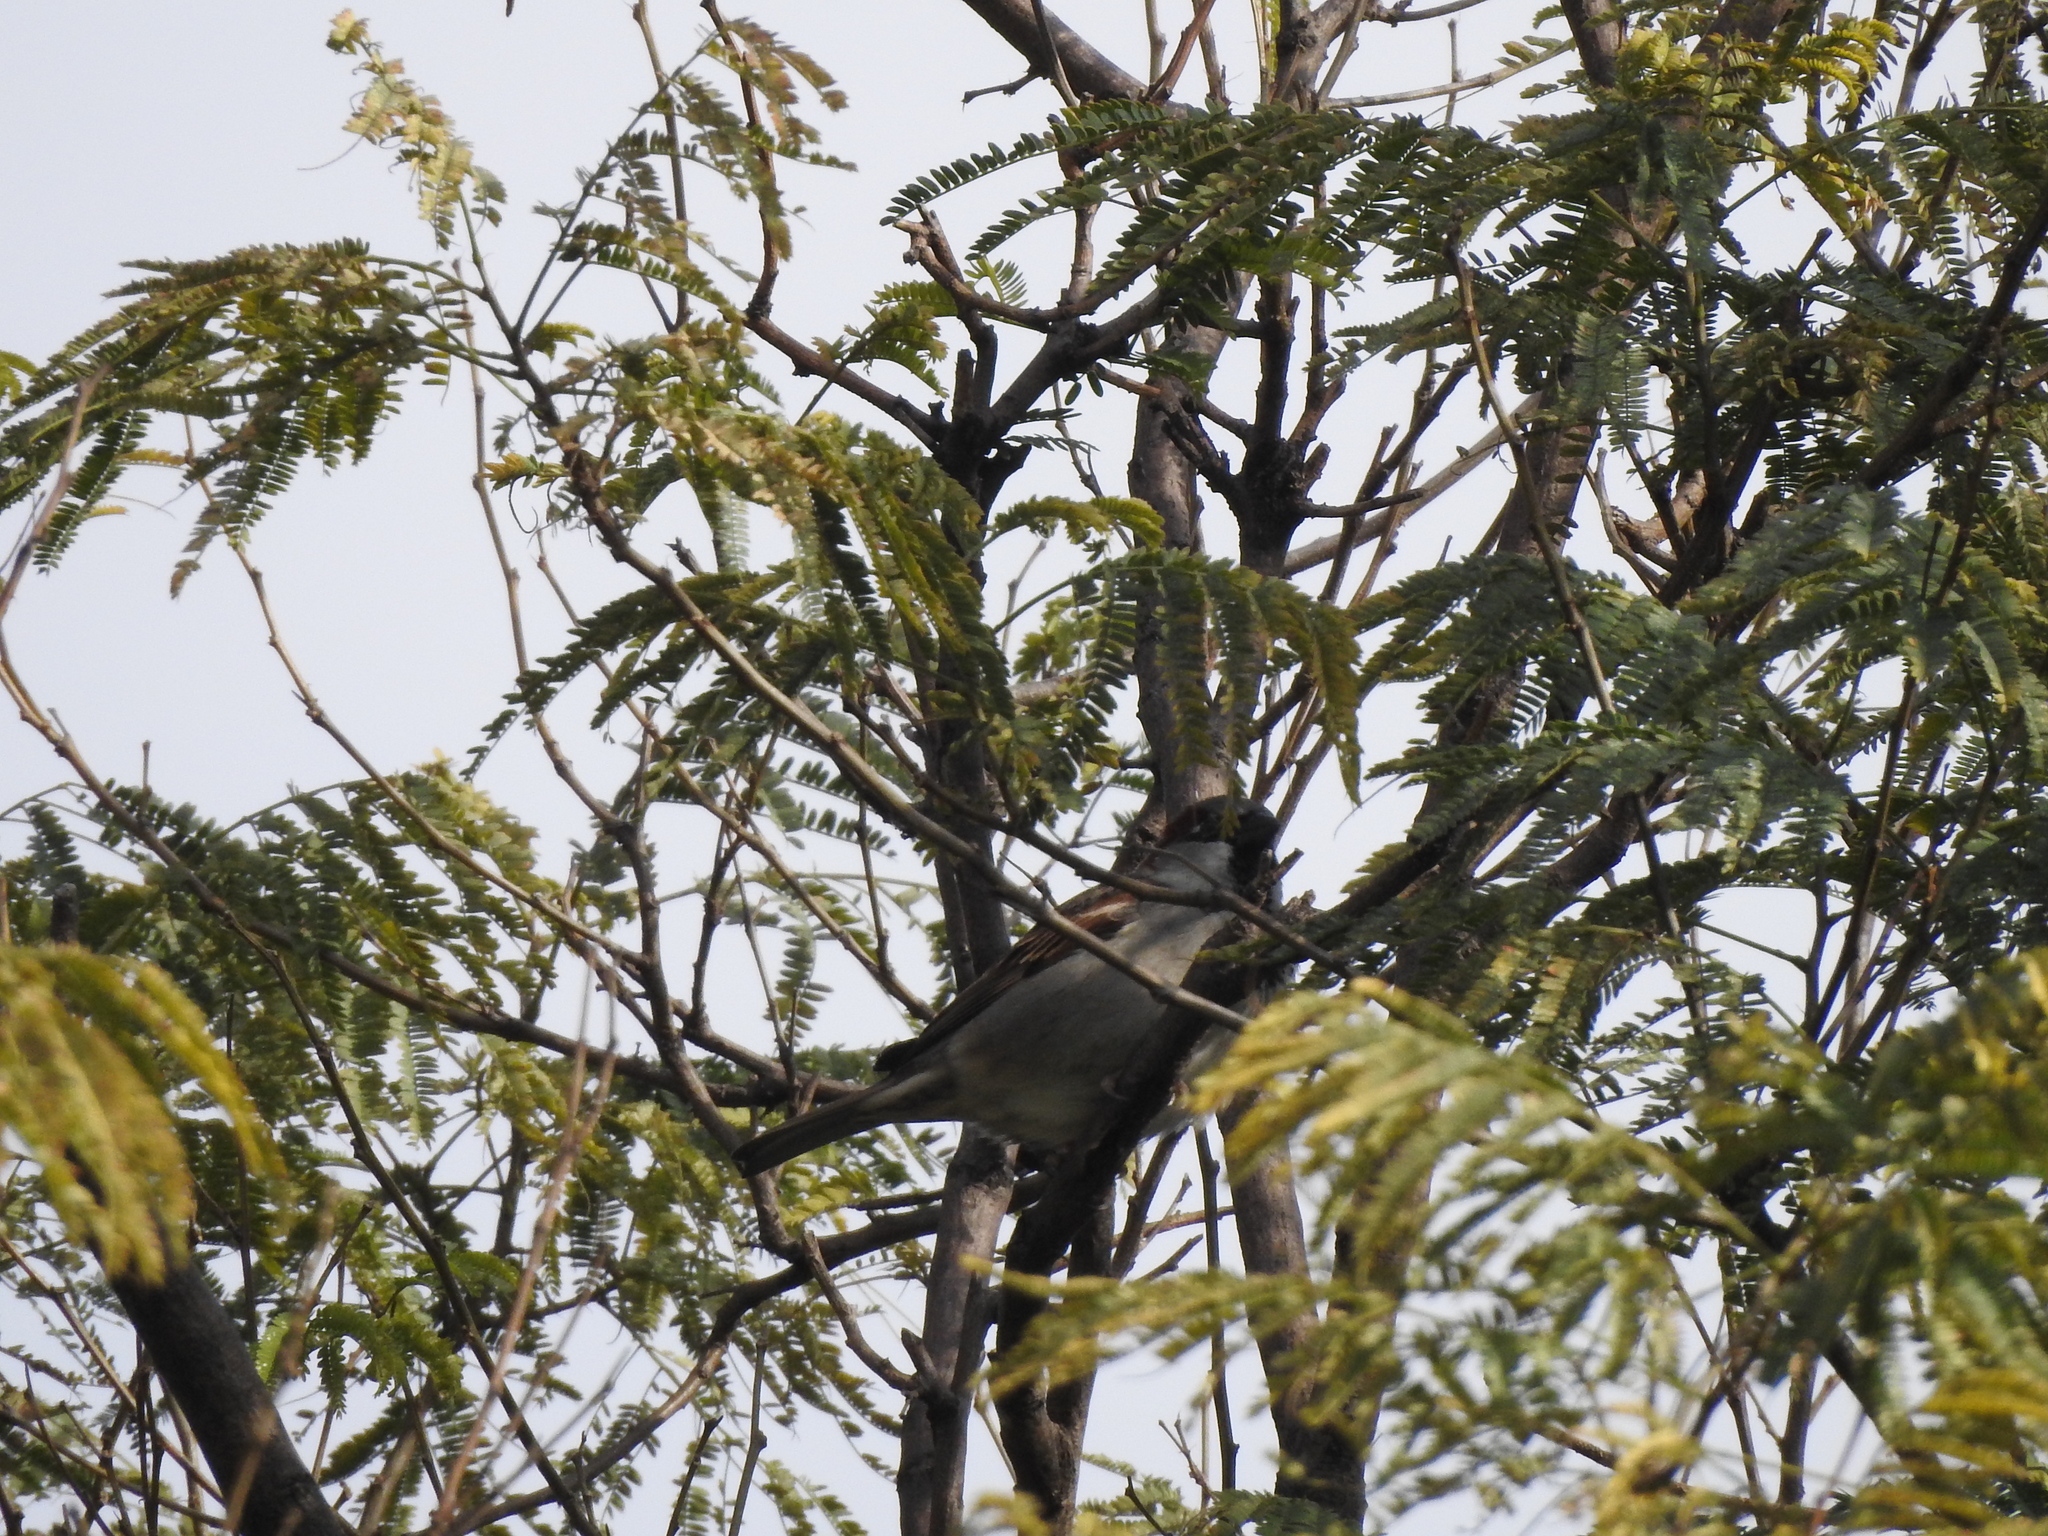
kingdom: Animalia
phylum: Chordata
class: Aves
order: Passeriformes
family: Passeridae
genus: Passer
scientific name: Passer domesticus
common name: House sparrow
